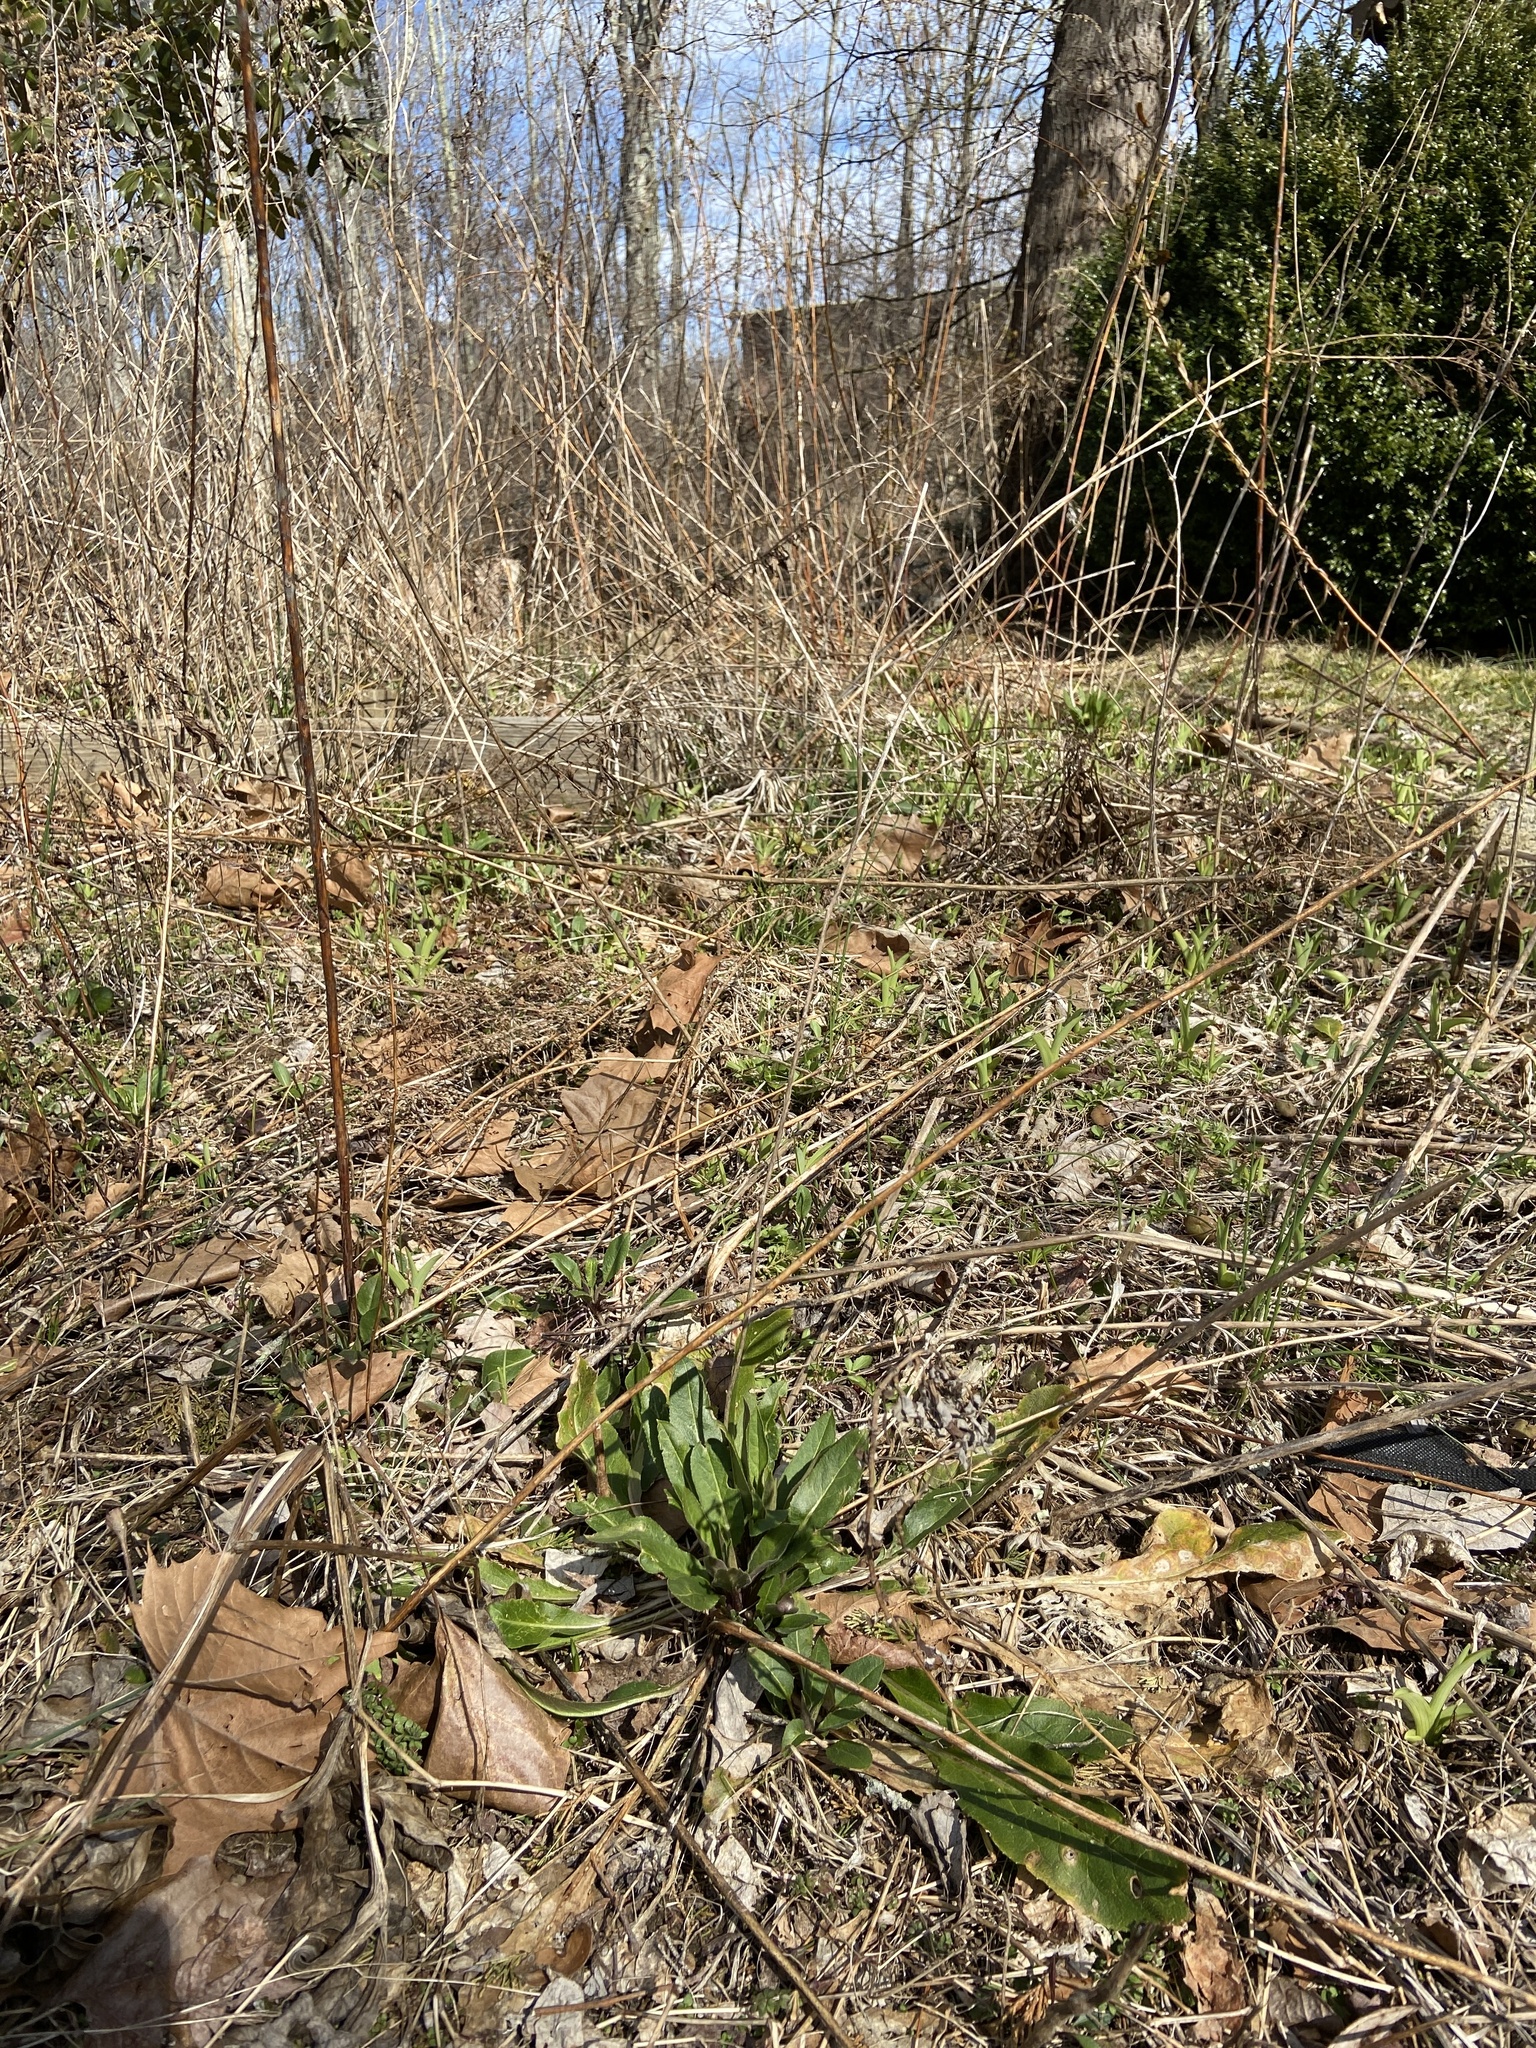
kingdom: Plantae
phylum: Tracheophyta
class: Magnoliopsida
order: Brassicales
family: Brassicaceae
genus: Hesperis
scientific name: Hesperis matronalis
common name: Dame's-violet
